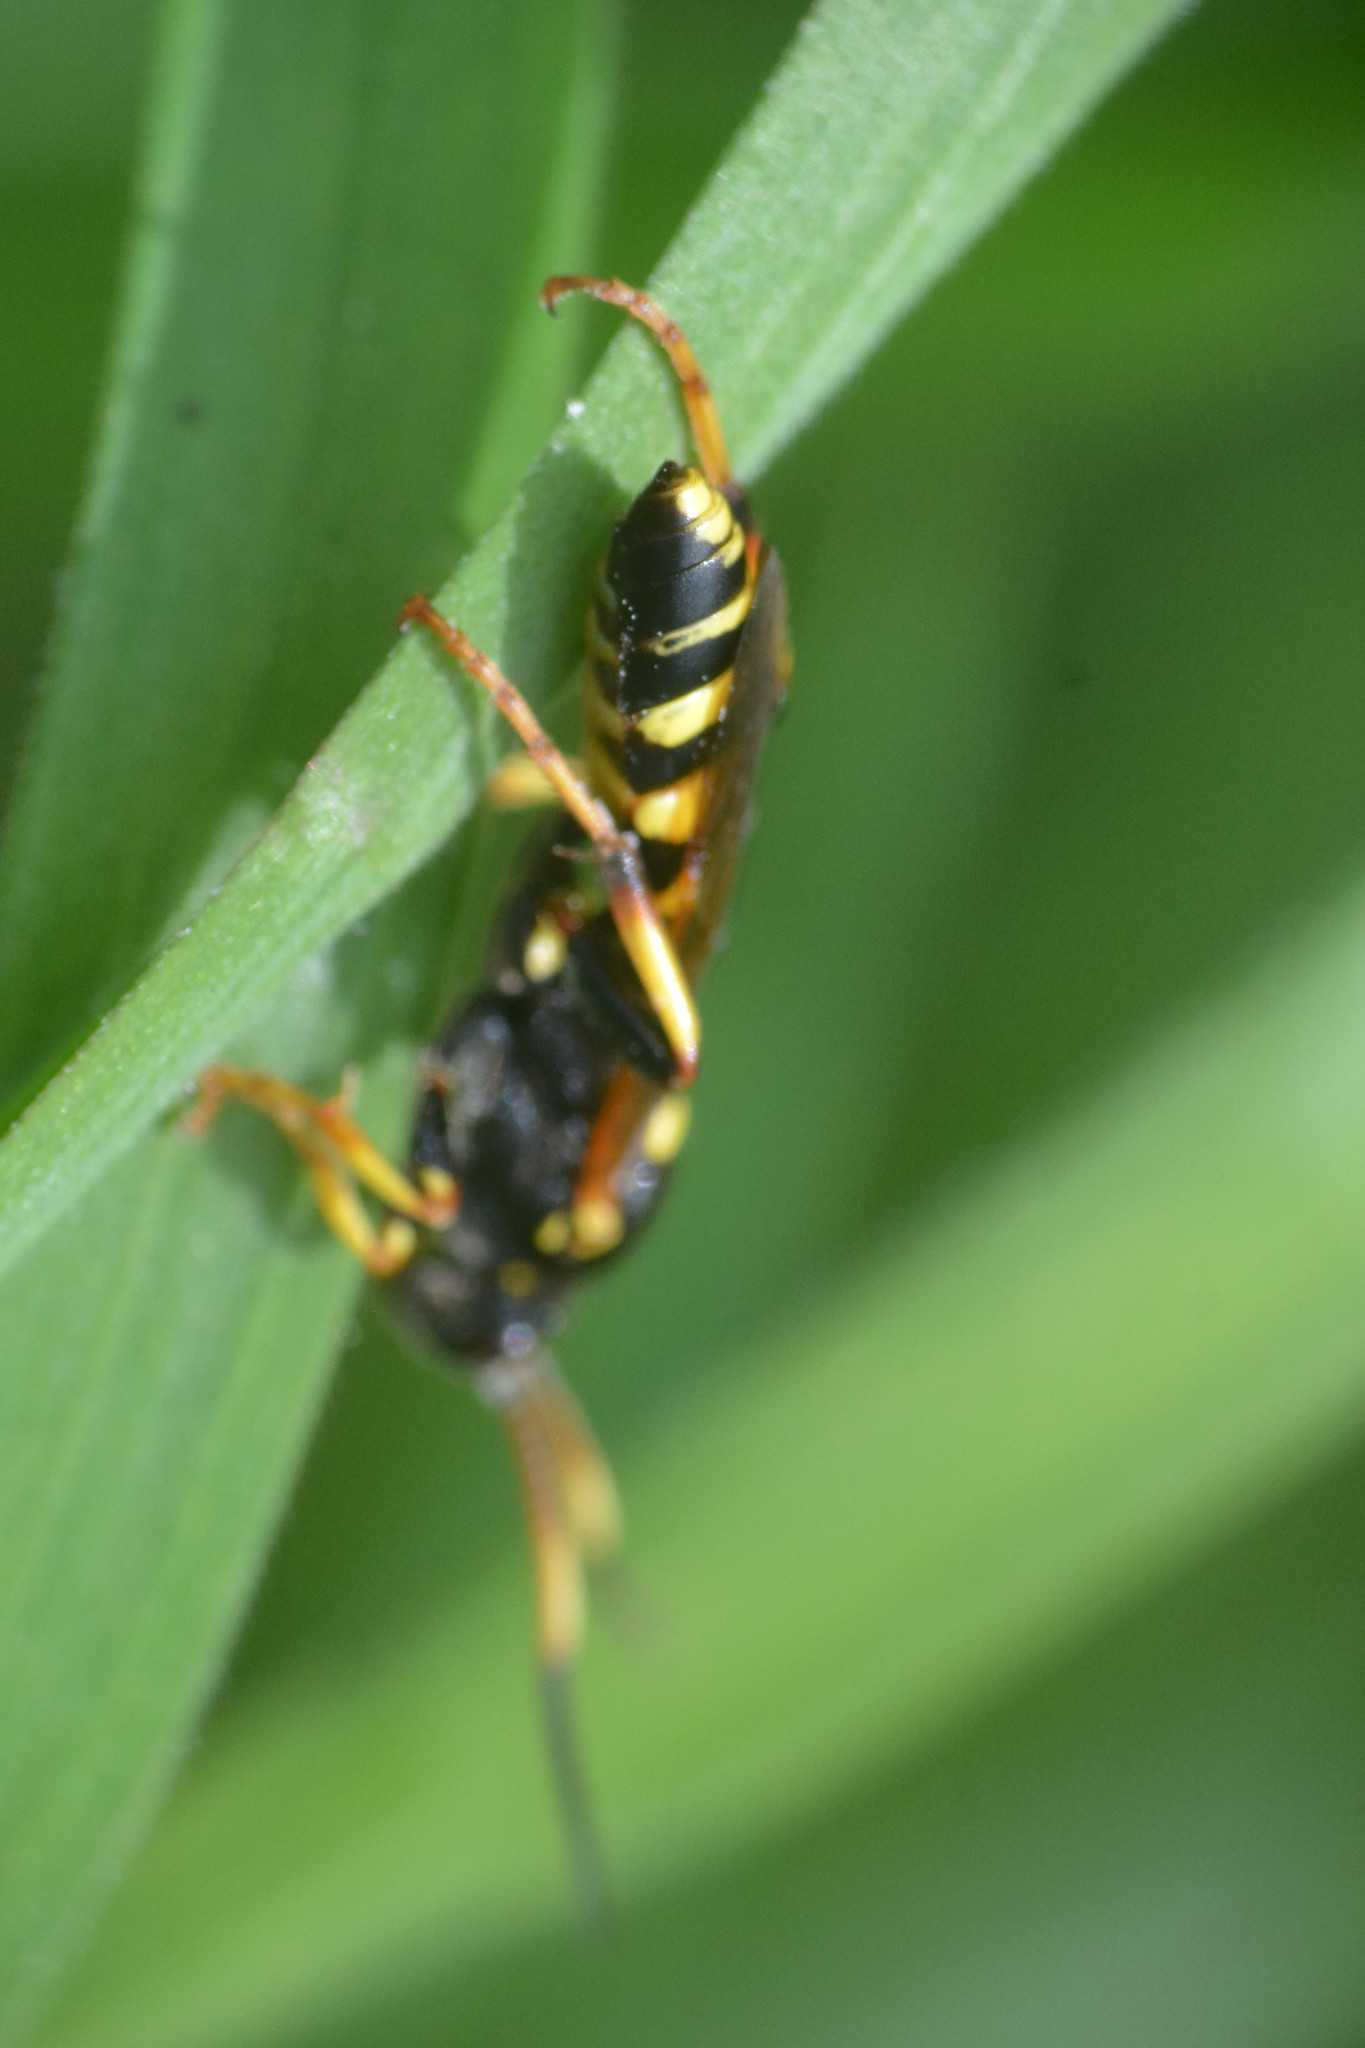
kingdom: Animalia
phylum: Arthropoda
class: Insecta
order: Hymenoptera
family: Ichneumonidae
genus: Ichneumon
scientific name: Ichneumon xanthorius
